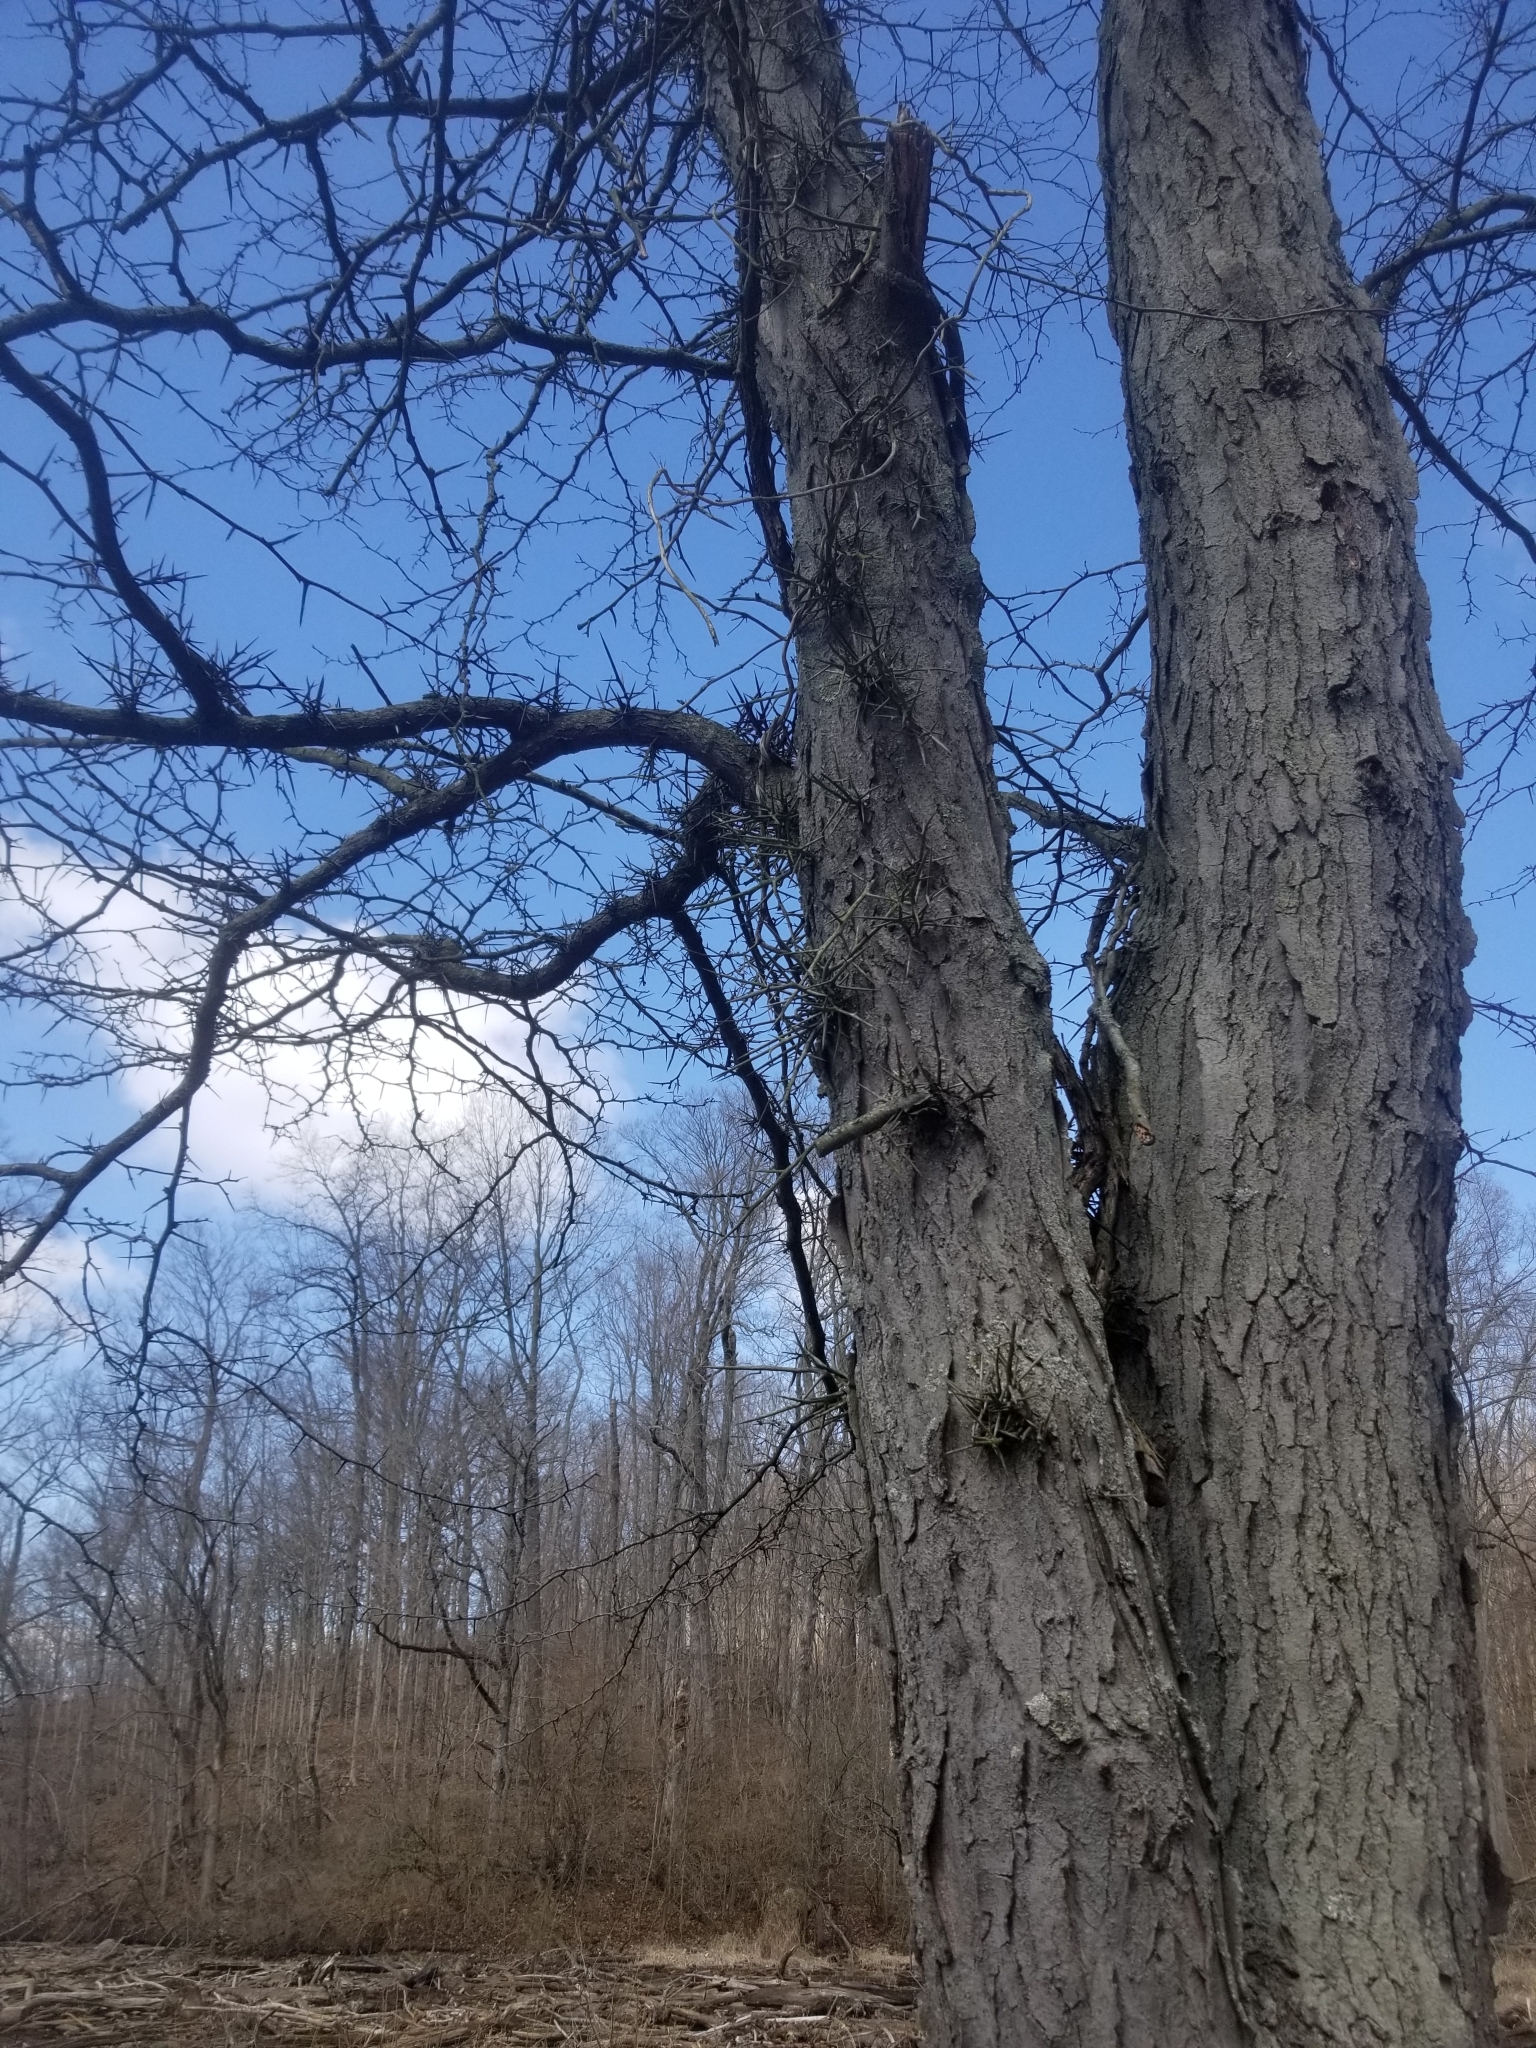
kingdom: Plantae
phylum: Tracheophyta
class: Magnoliopsida
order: Fabales
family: Fabaceae
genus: Gleditsia
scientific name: Gleditsia triacanthos
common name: Common honeylocust
